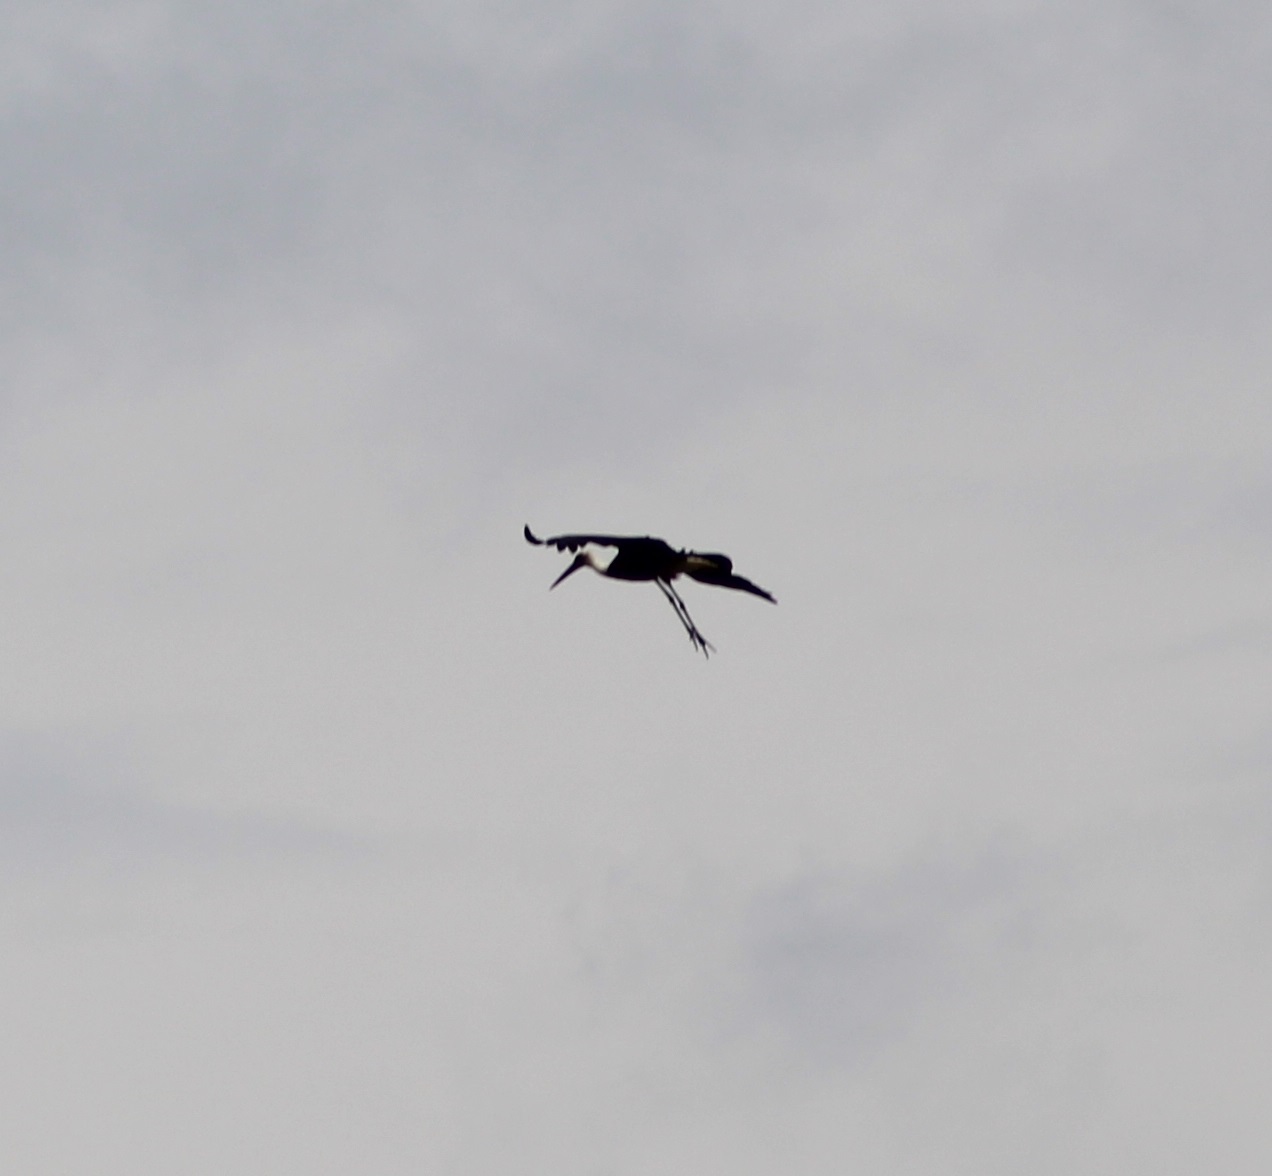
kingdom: Animalia
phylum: Chordata
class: Aves
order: Ciconiiformes
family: Ciconiidae
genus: Ciconia
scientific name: Ciconia microscelis
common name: African woollyneck
